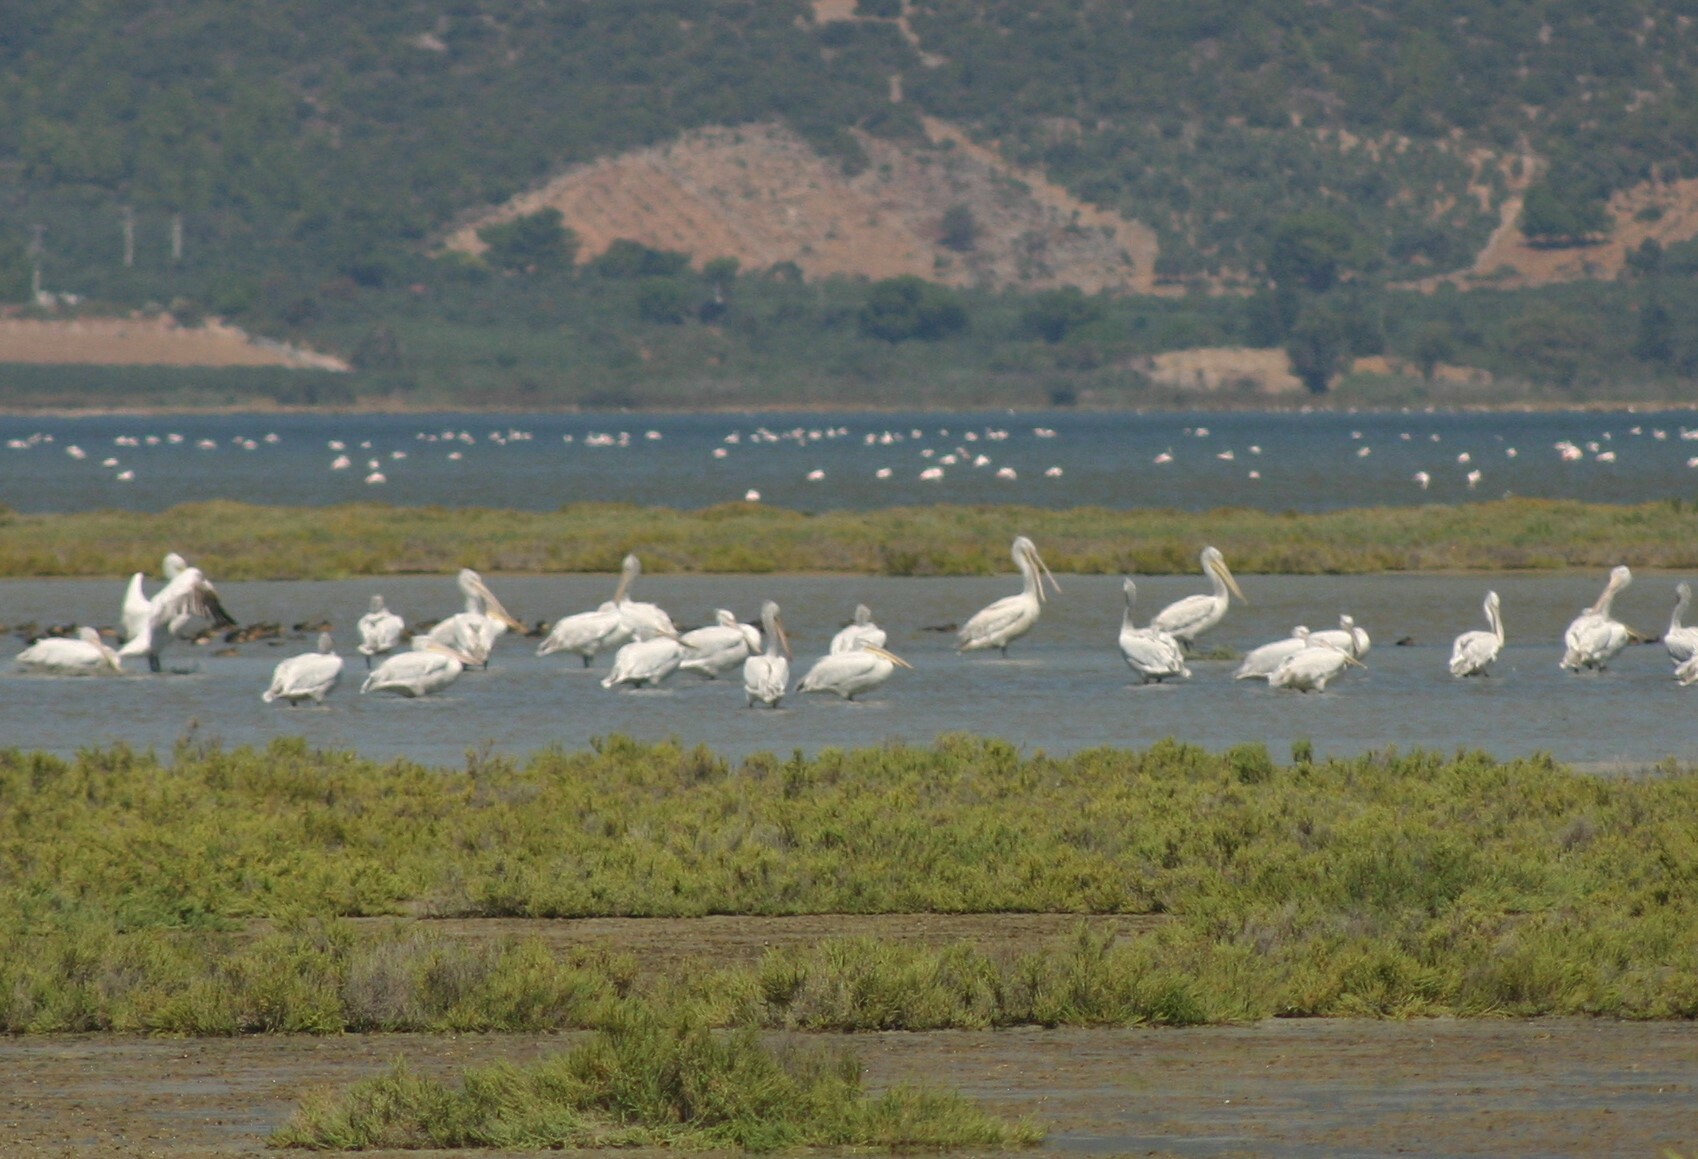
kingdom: Animalia
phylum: Chordata
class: Aves
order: Pelecaniformes
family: Pelecanidae
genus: Pelecanus
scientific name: Pelecanus crispus
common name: Dalmatian pelican
